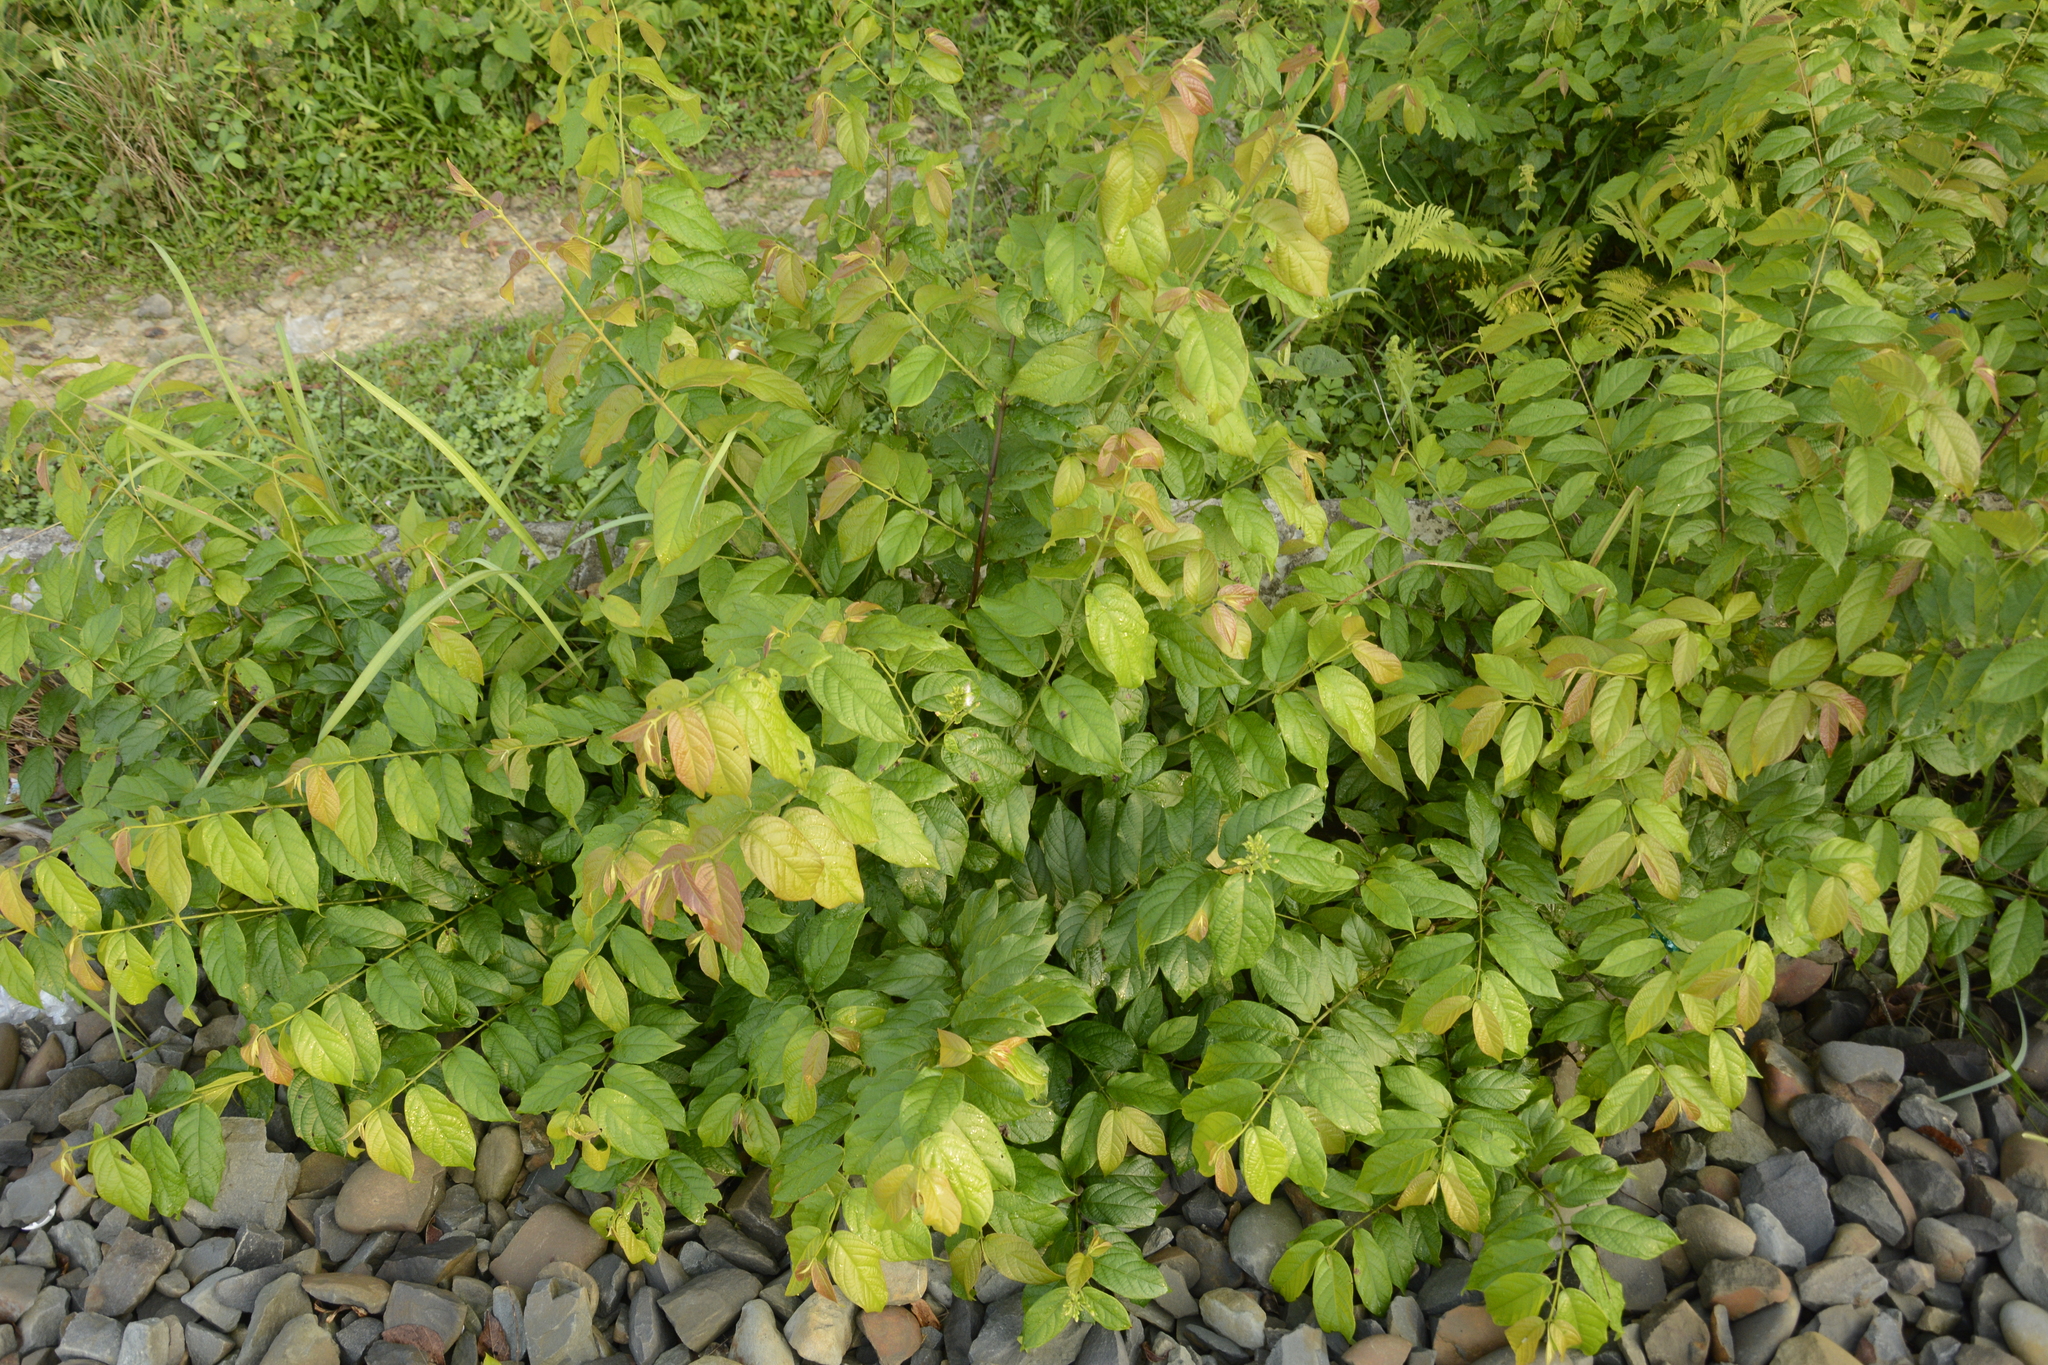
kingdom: Plantae
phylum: Tracheophyta
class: Magnoliopsida
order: Myrtales
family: Combretaceae
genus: Combretum
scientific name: Combretum indicum
